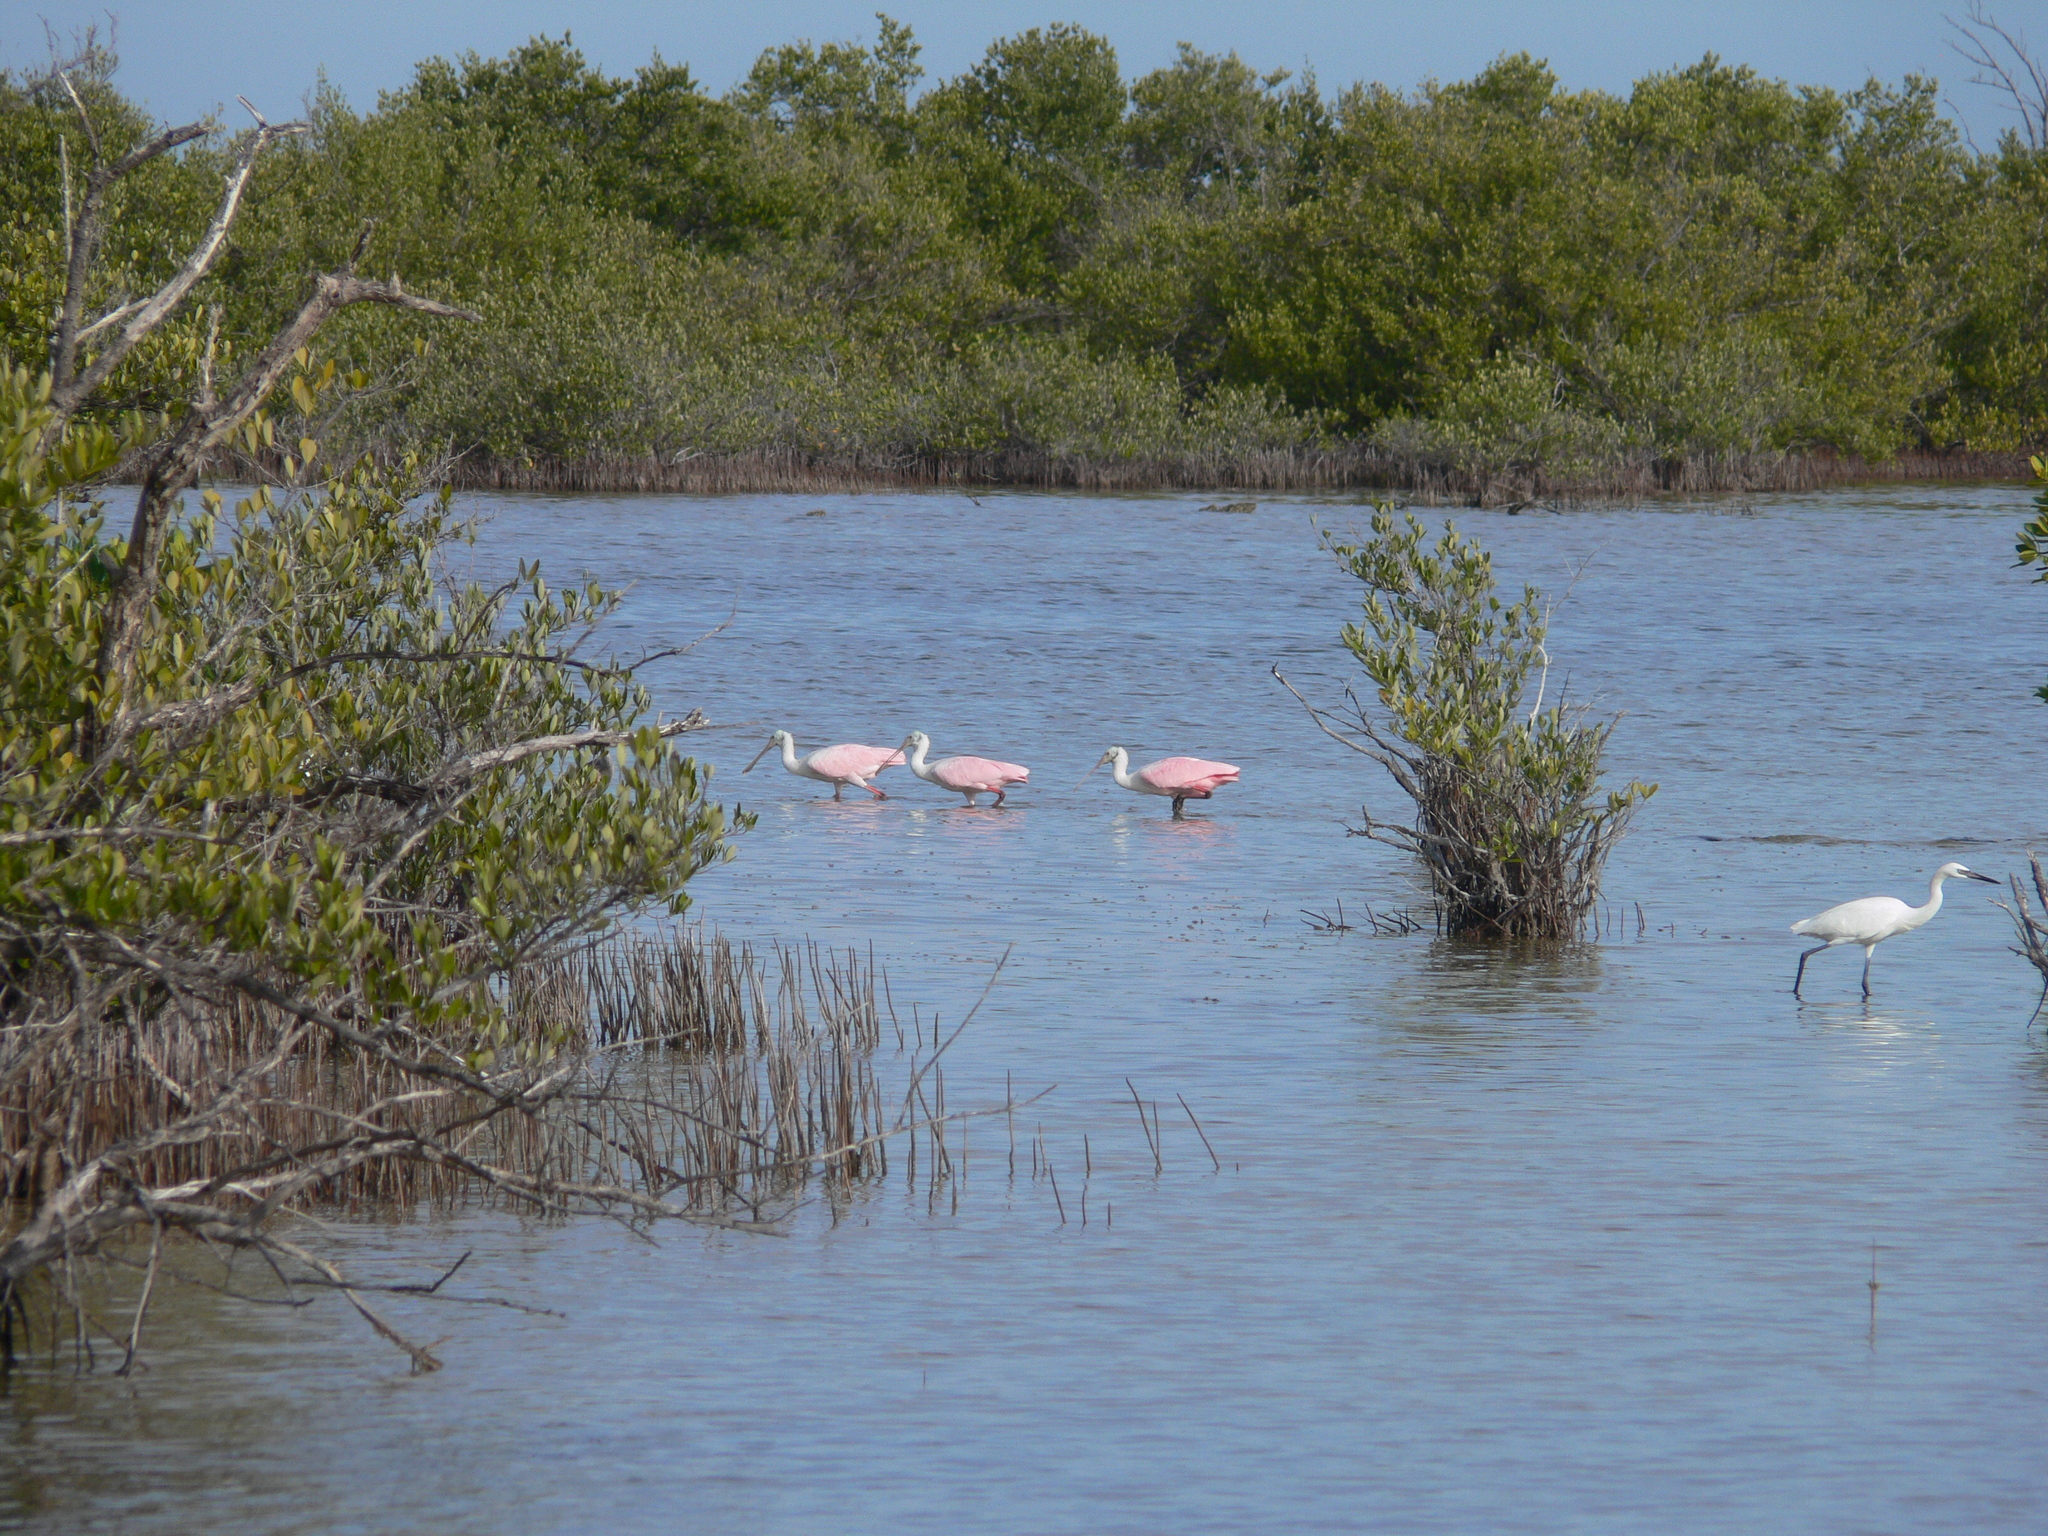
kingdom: Animalia
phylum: Chordata
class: Aves
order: Pelecaniformes
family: Threskiornithidae
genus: Platalea
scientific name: Platalea ajaja
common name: Roseate spoonbill
